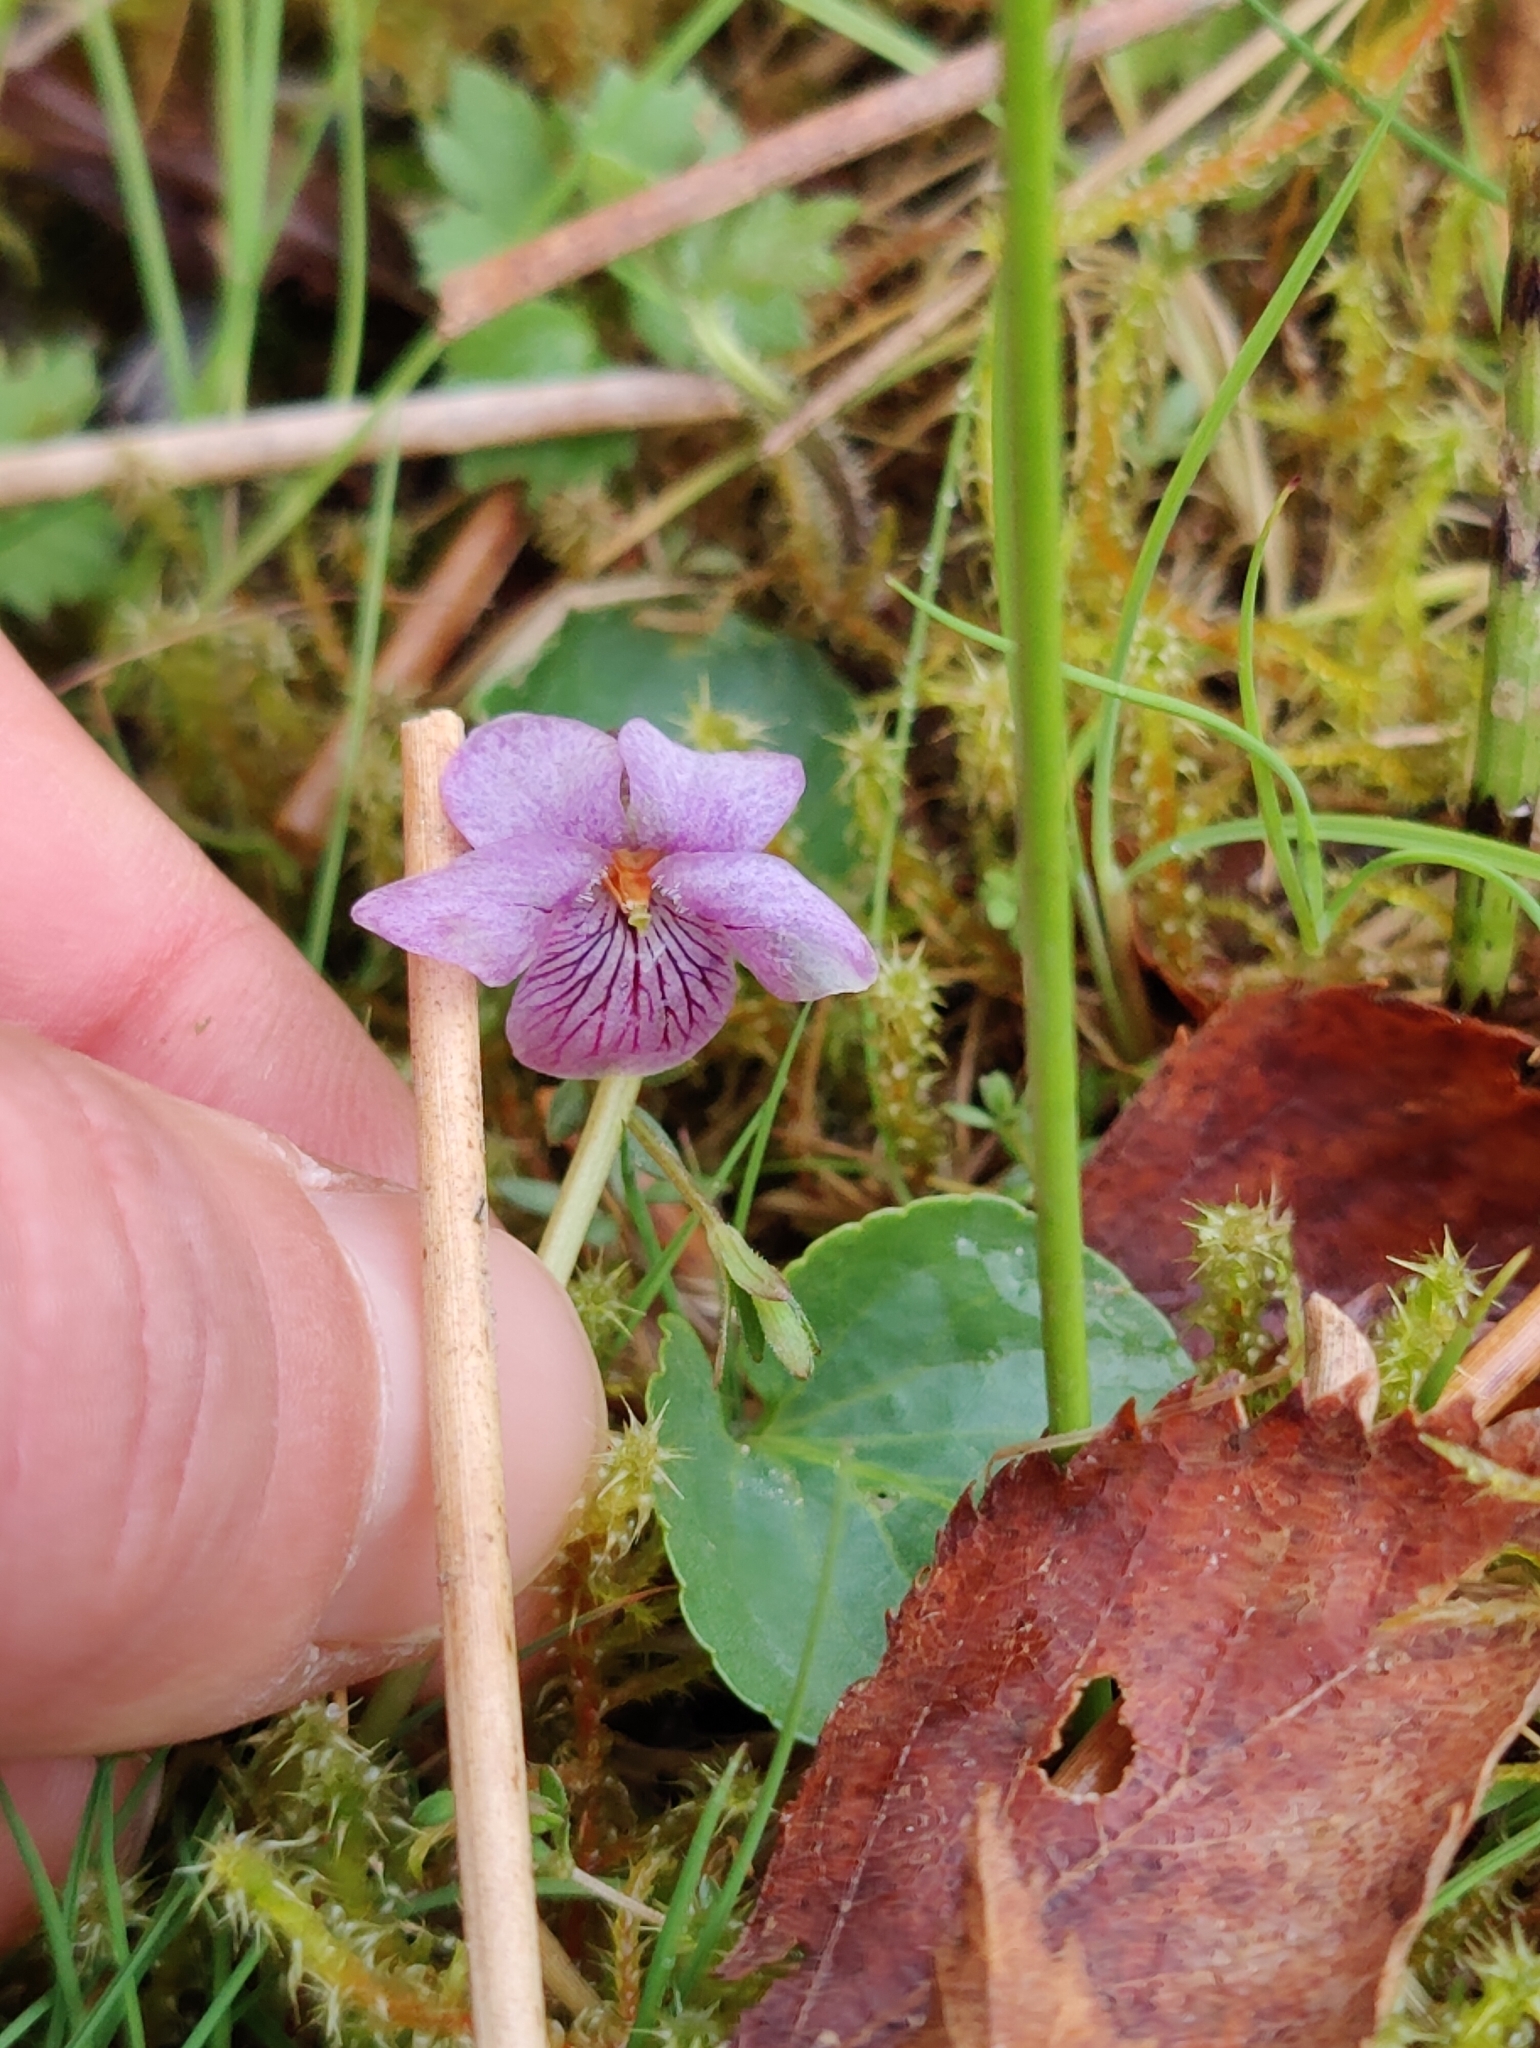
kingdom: Plantae
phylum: Tracheophyta
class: Magnoliopsida
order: Malpighiales
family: Violaceae
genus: Viola
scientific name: Viola palustris
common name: Marsh violet
